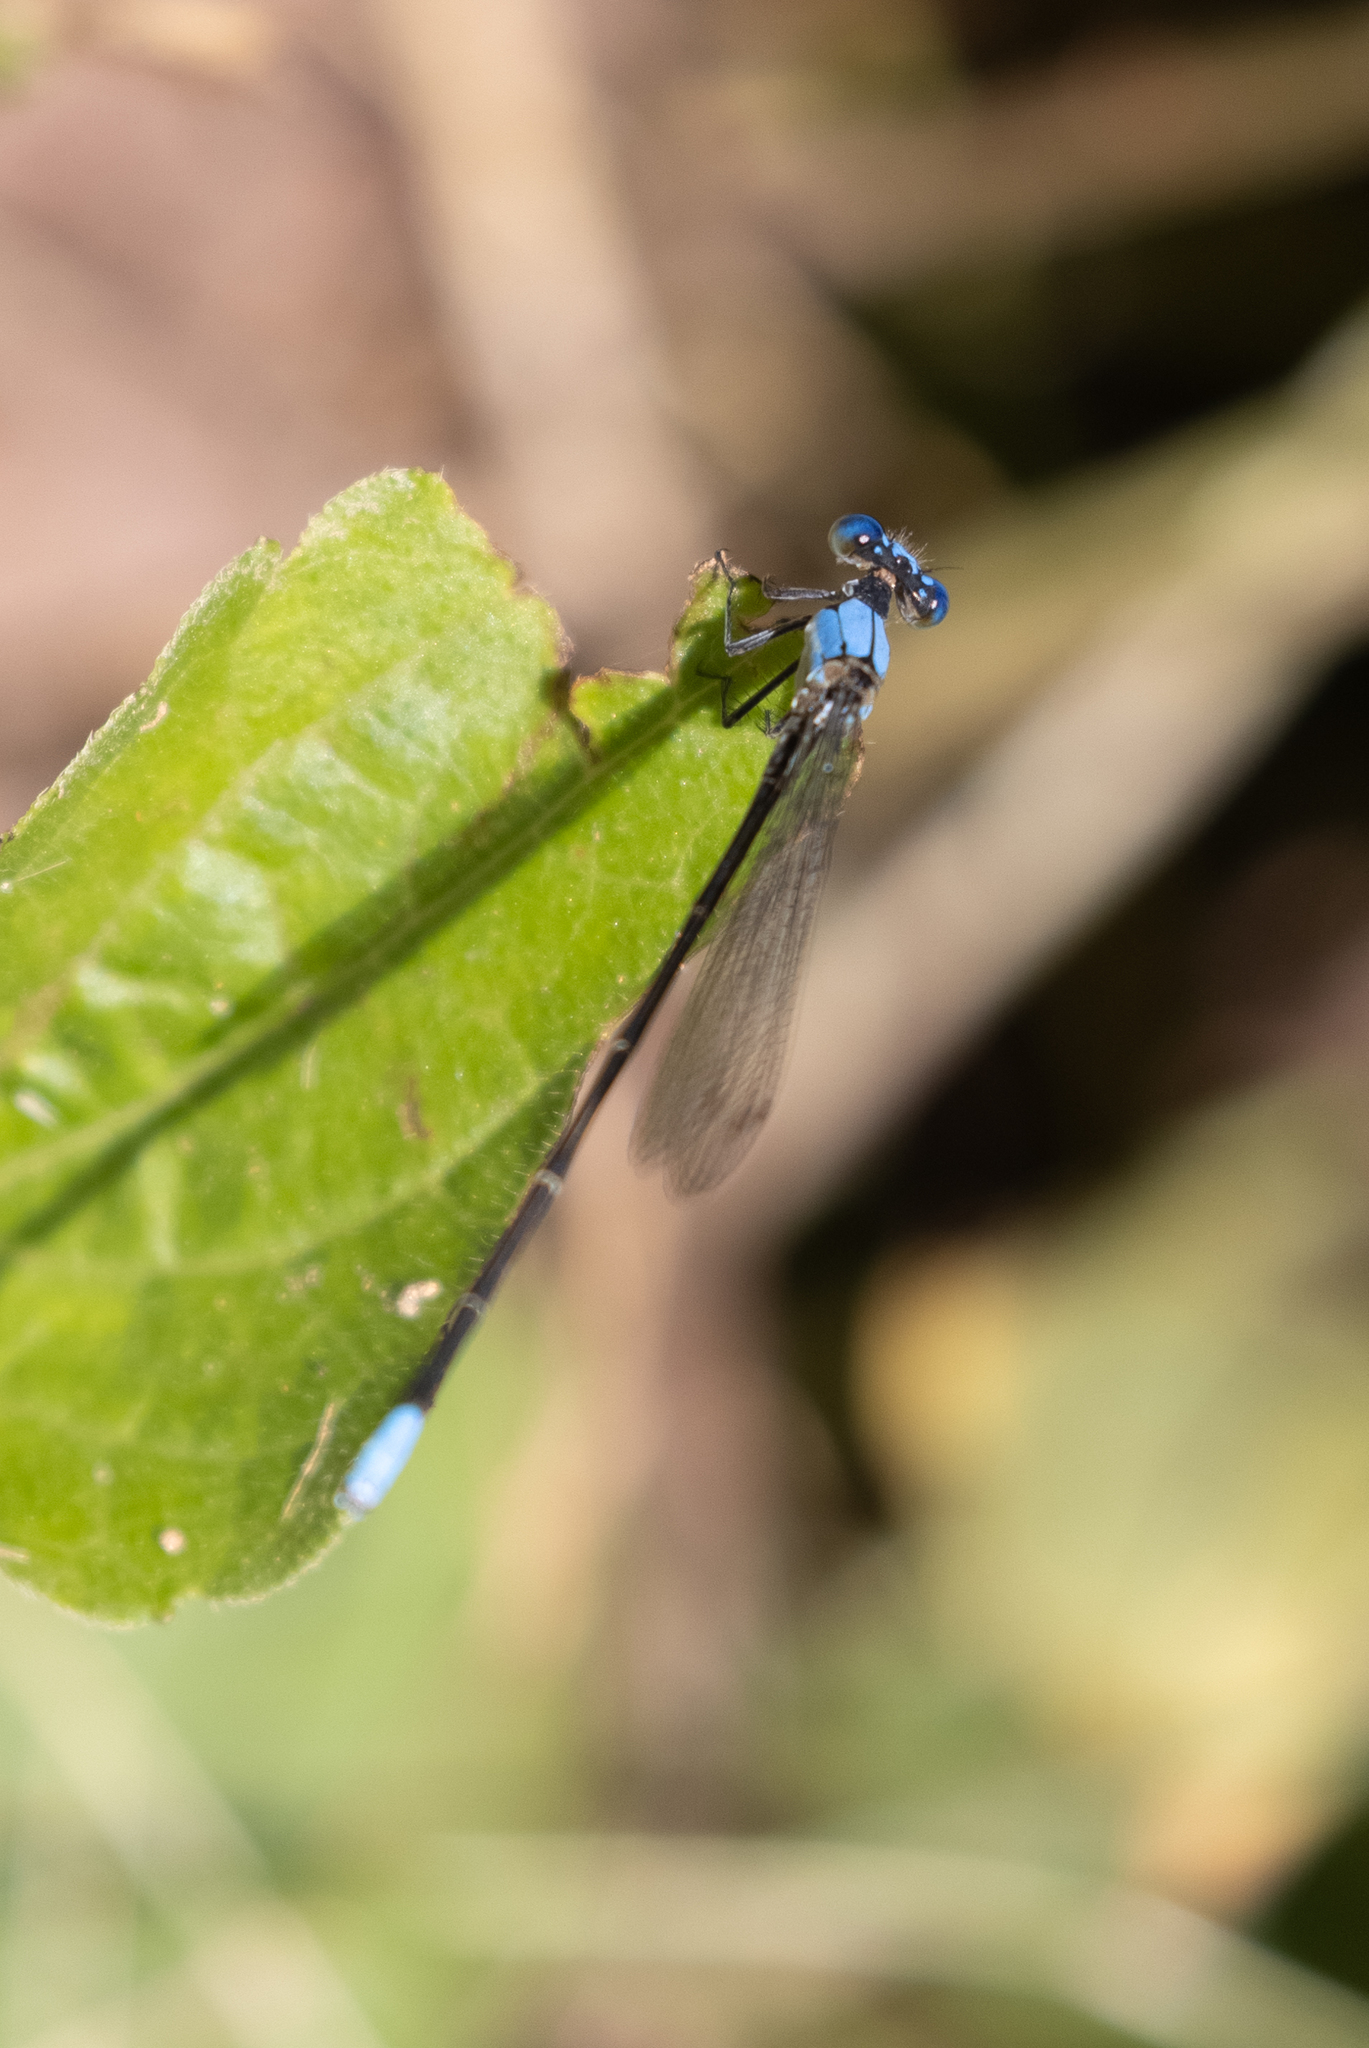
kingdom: Animalia
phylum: Arthropoda
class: Insecta
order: Odonata
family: Coenagrionidae
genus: Argia
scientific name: Argia apicalis
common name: Blue-fronted dancer
